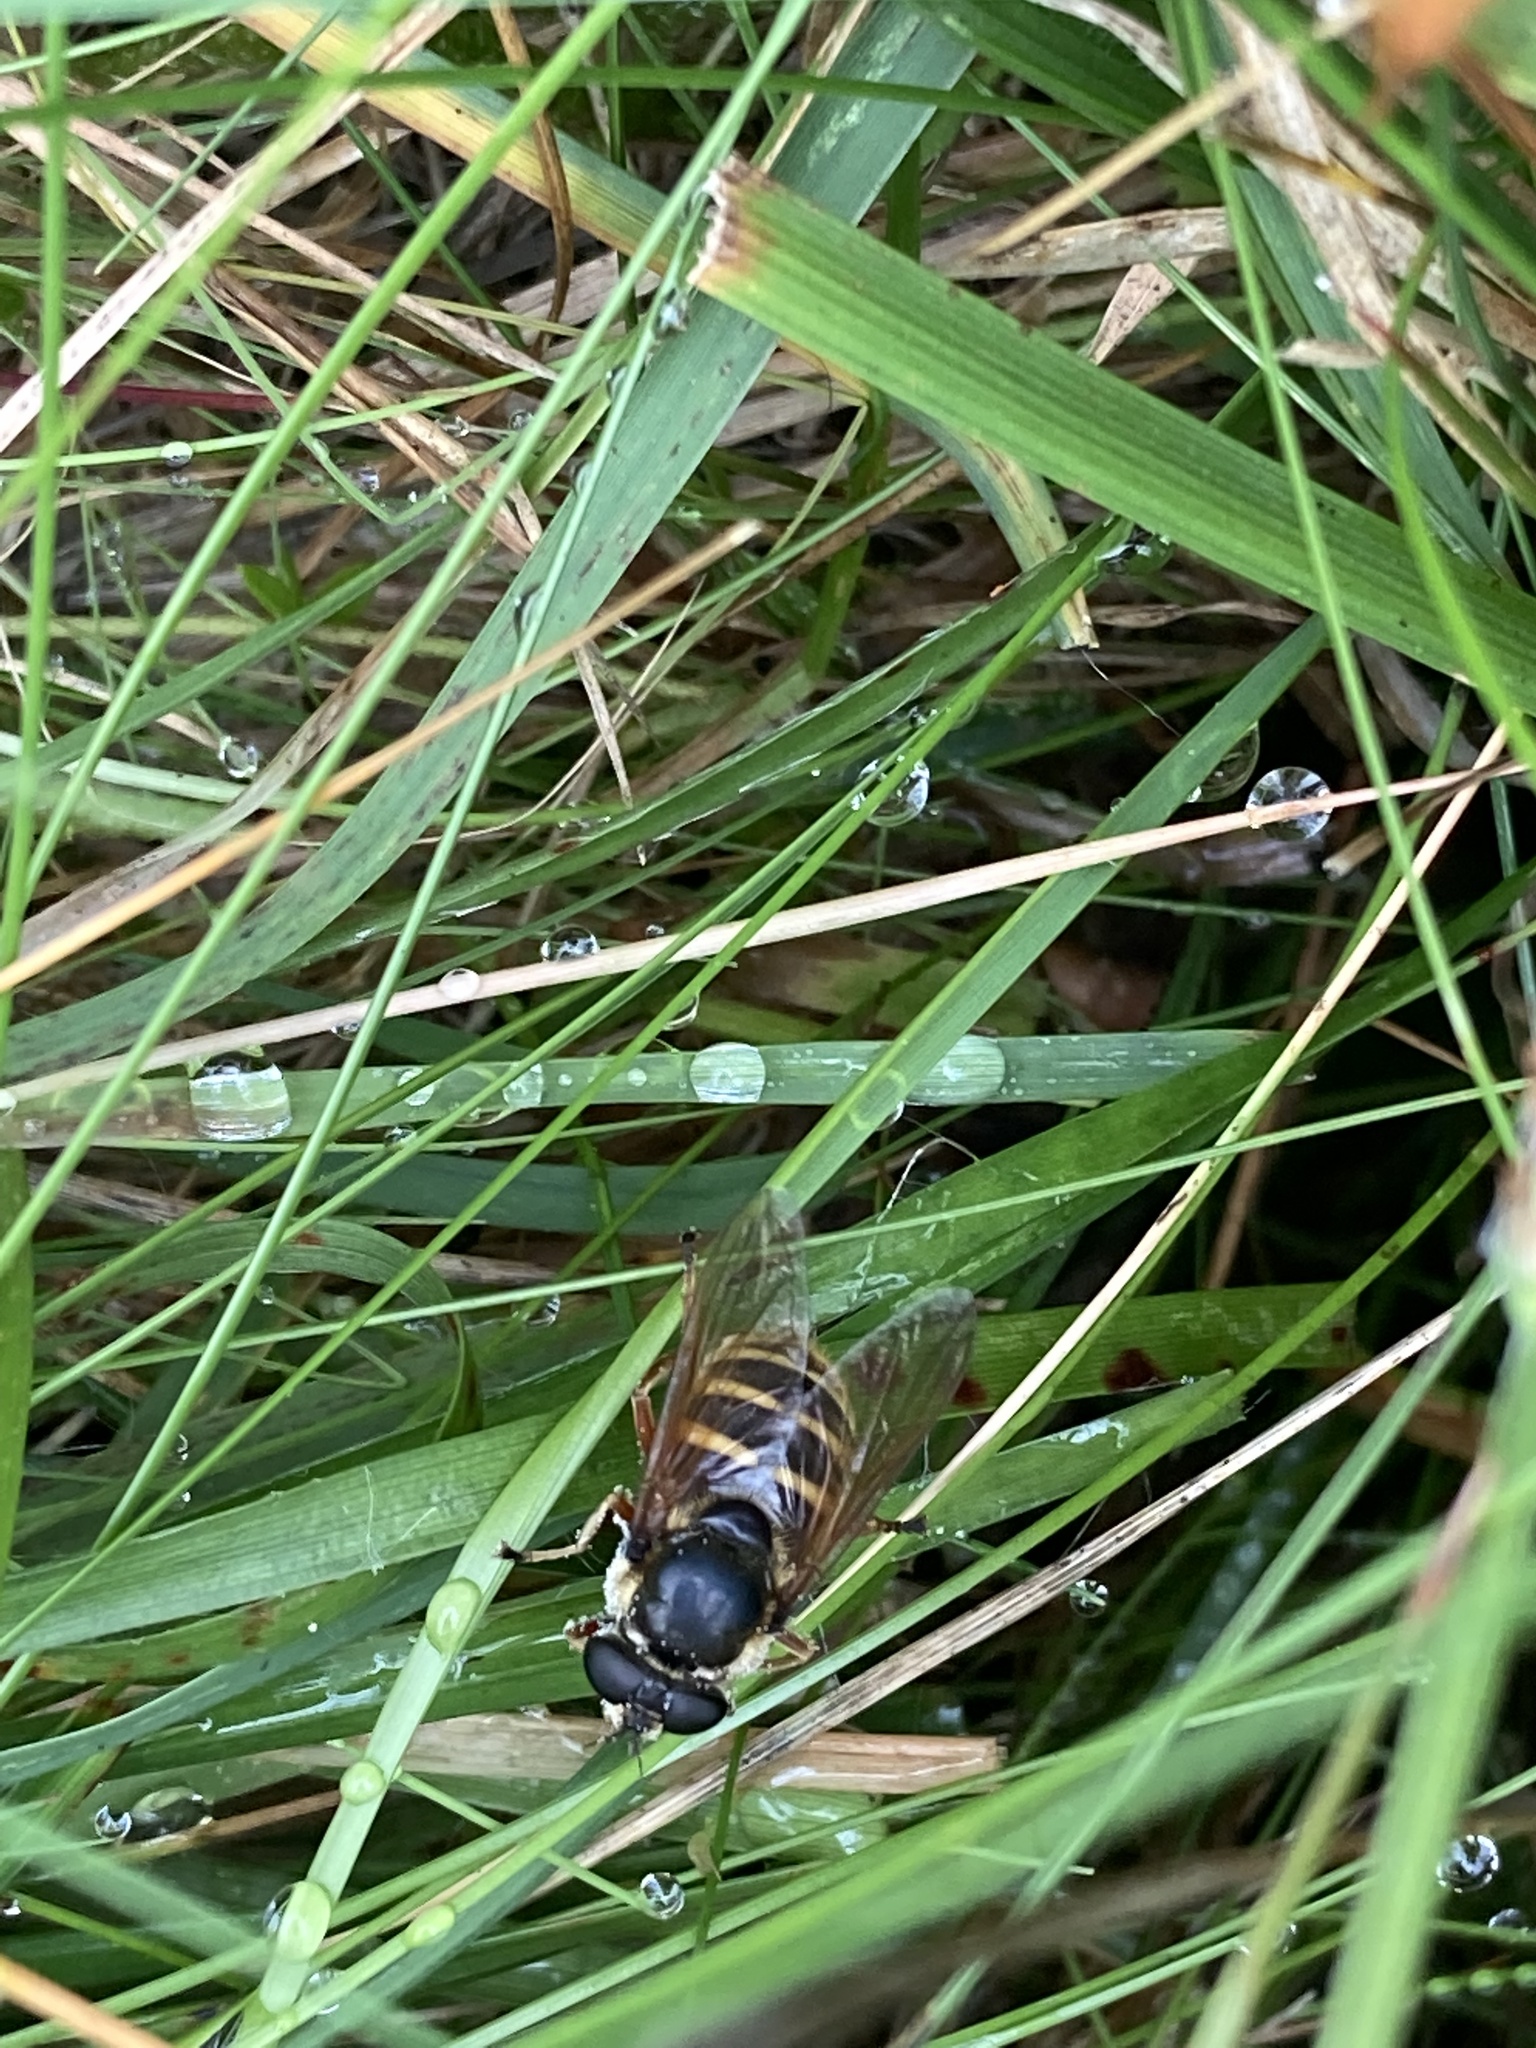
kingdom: Animalia
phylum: Arthropoda
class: Insecta
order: Diptera
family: Syrphidae
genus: Sericomyia
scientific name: Sericomyia silentis
